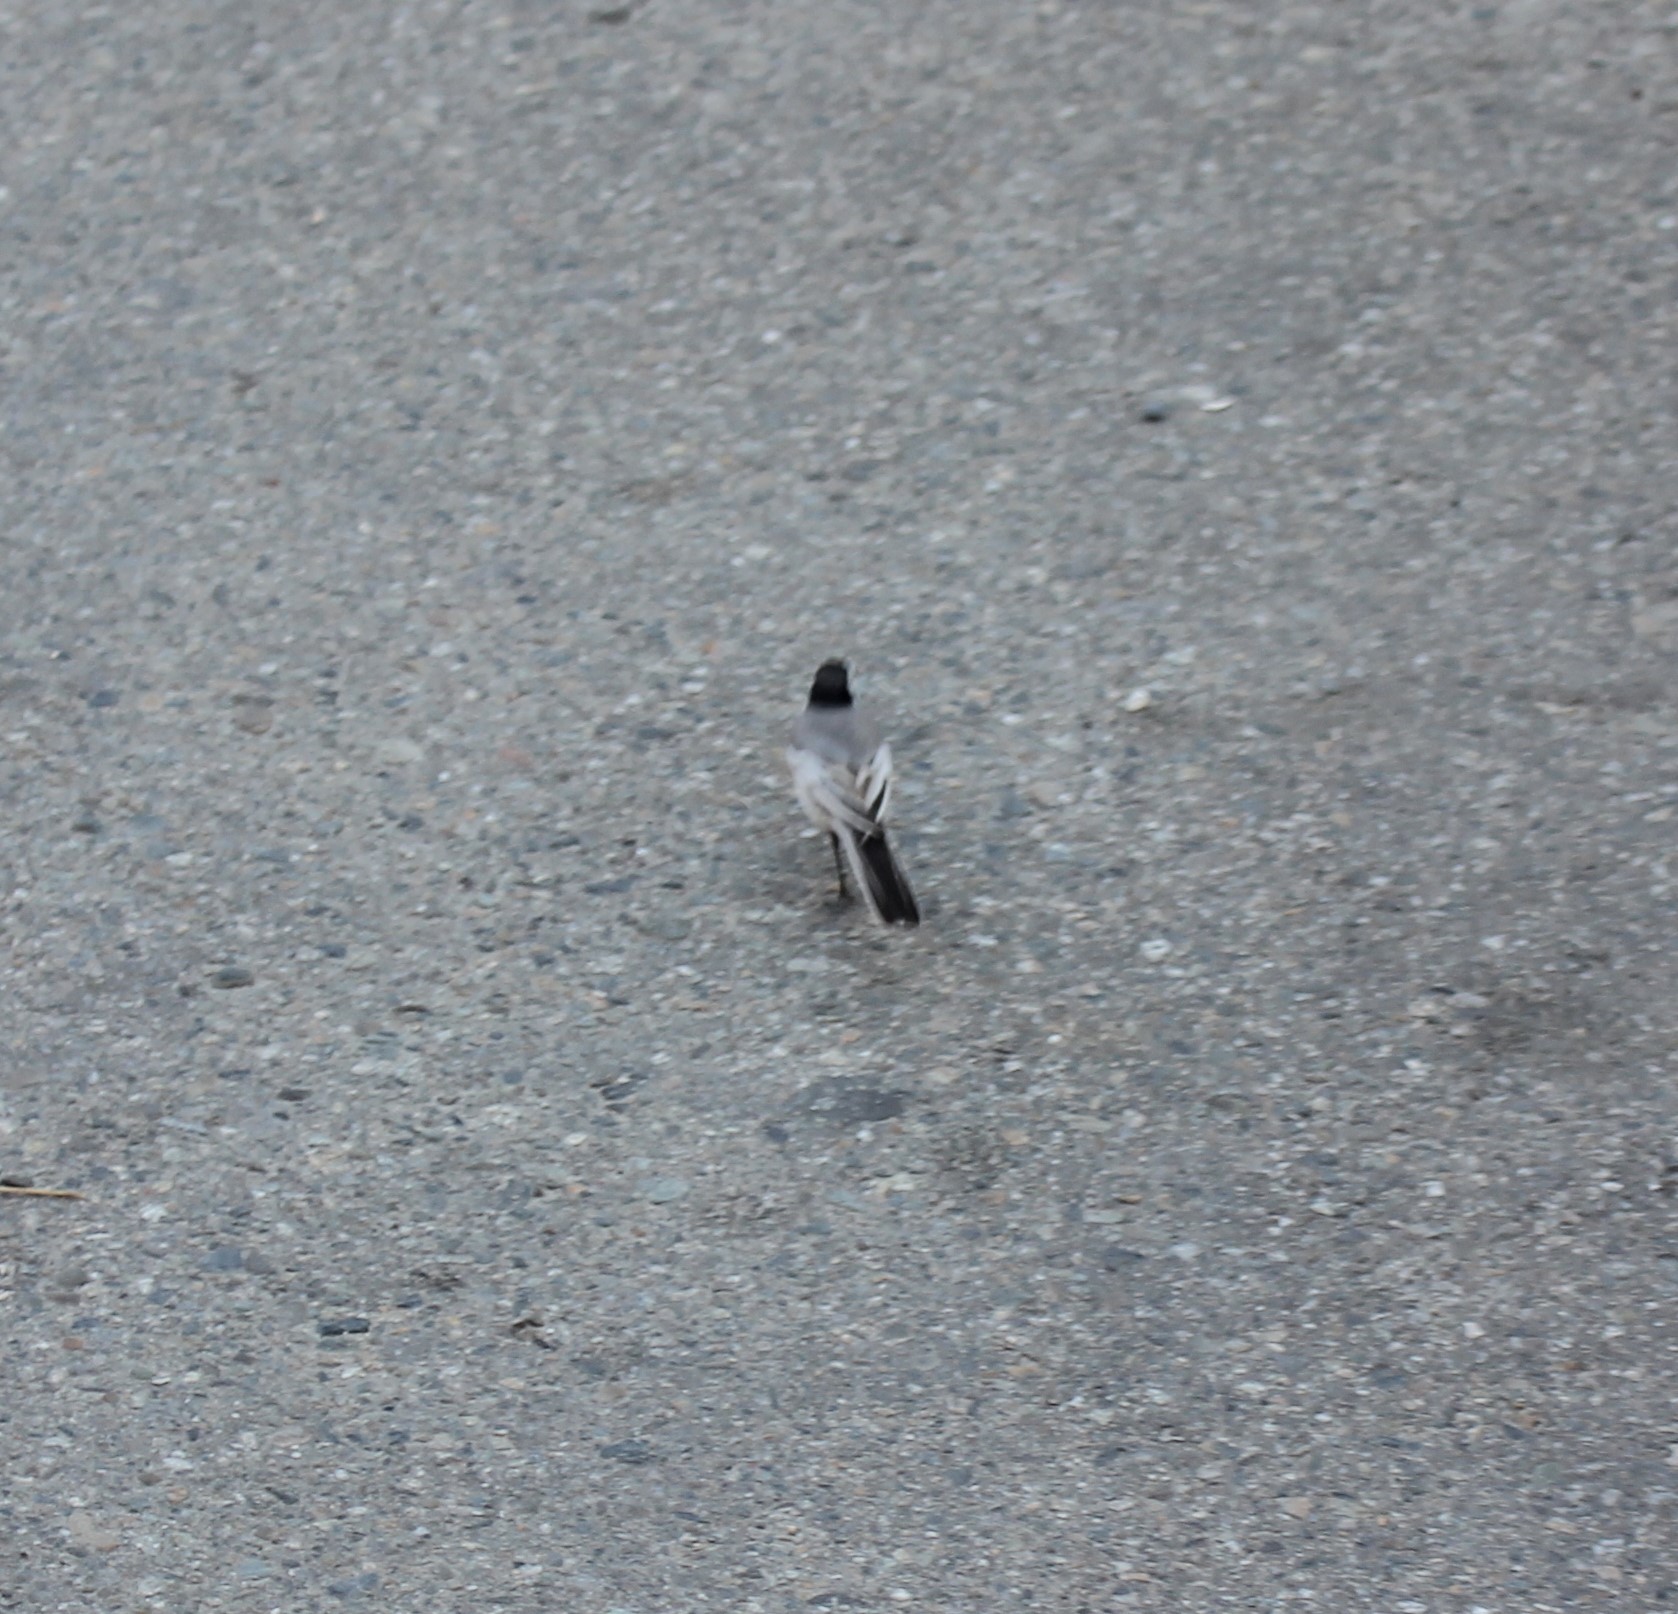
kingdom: Animalia
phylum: Chordata
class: Aves
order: Passeriformes
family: Motacillidae
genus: Motacilla
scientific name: Motacilla alba
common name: White wagtail
